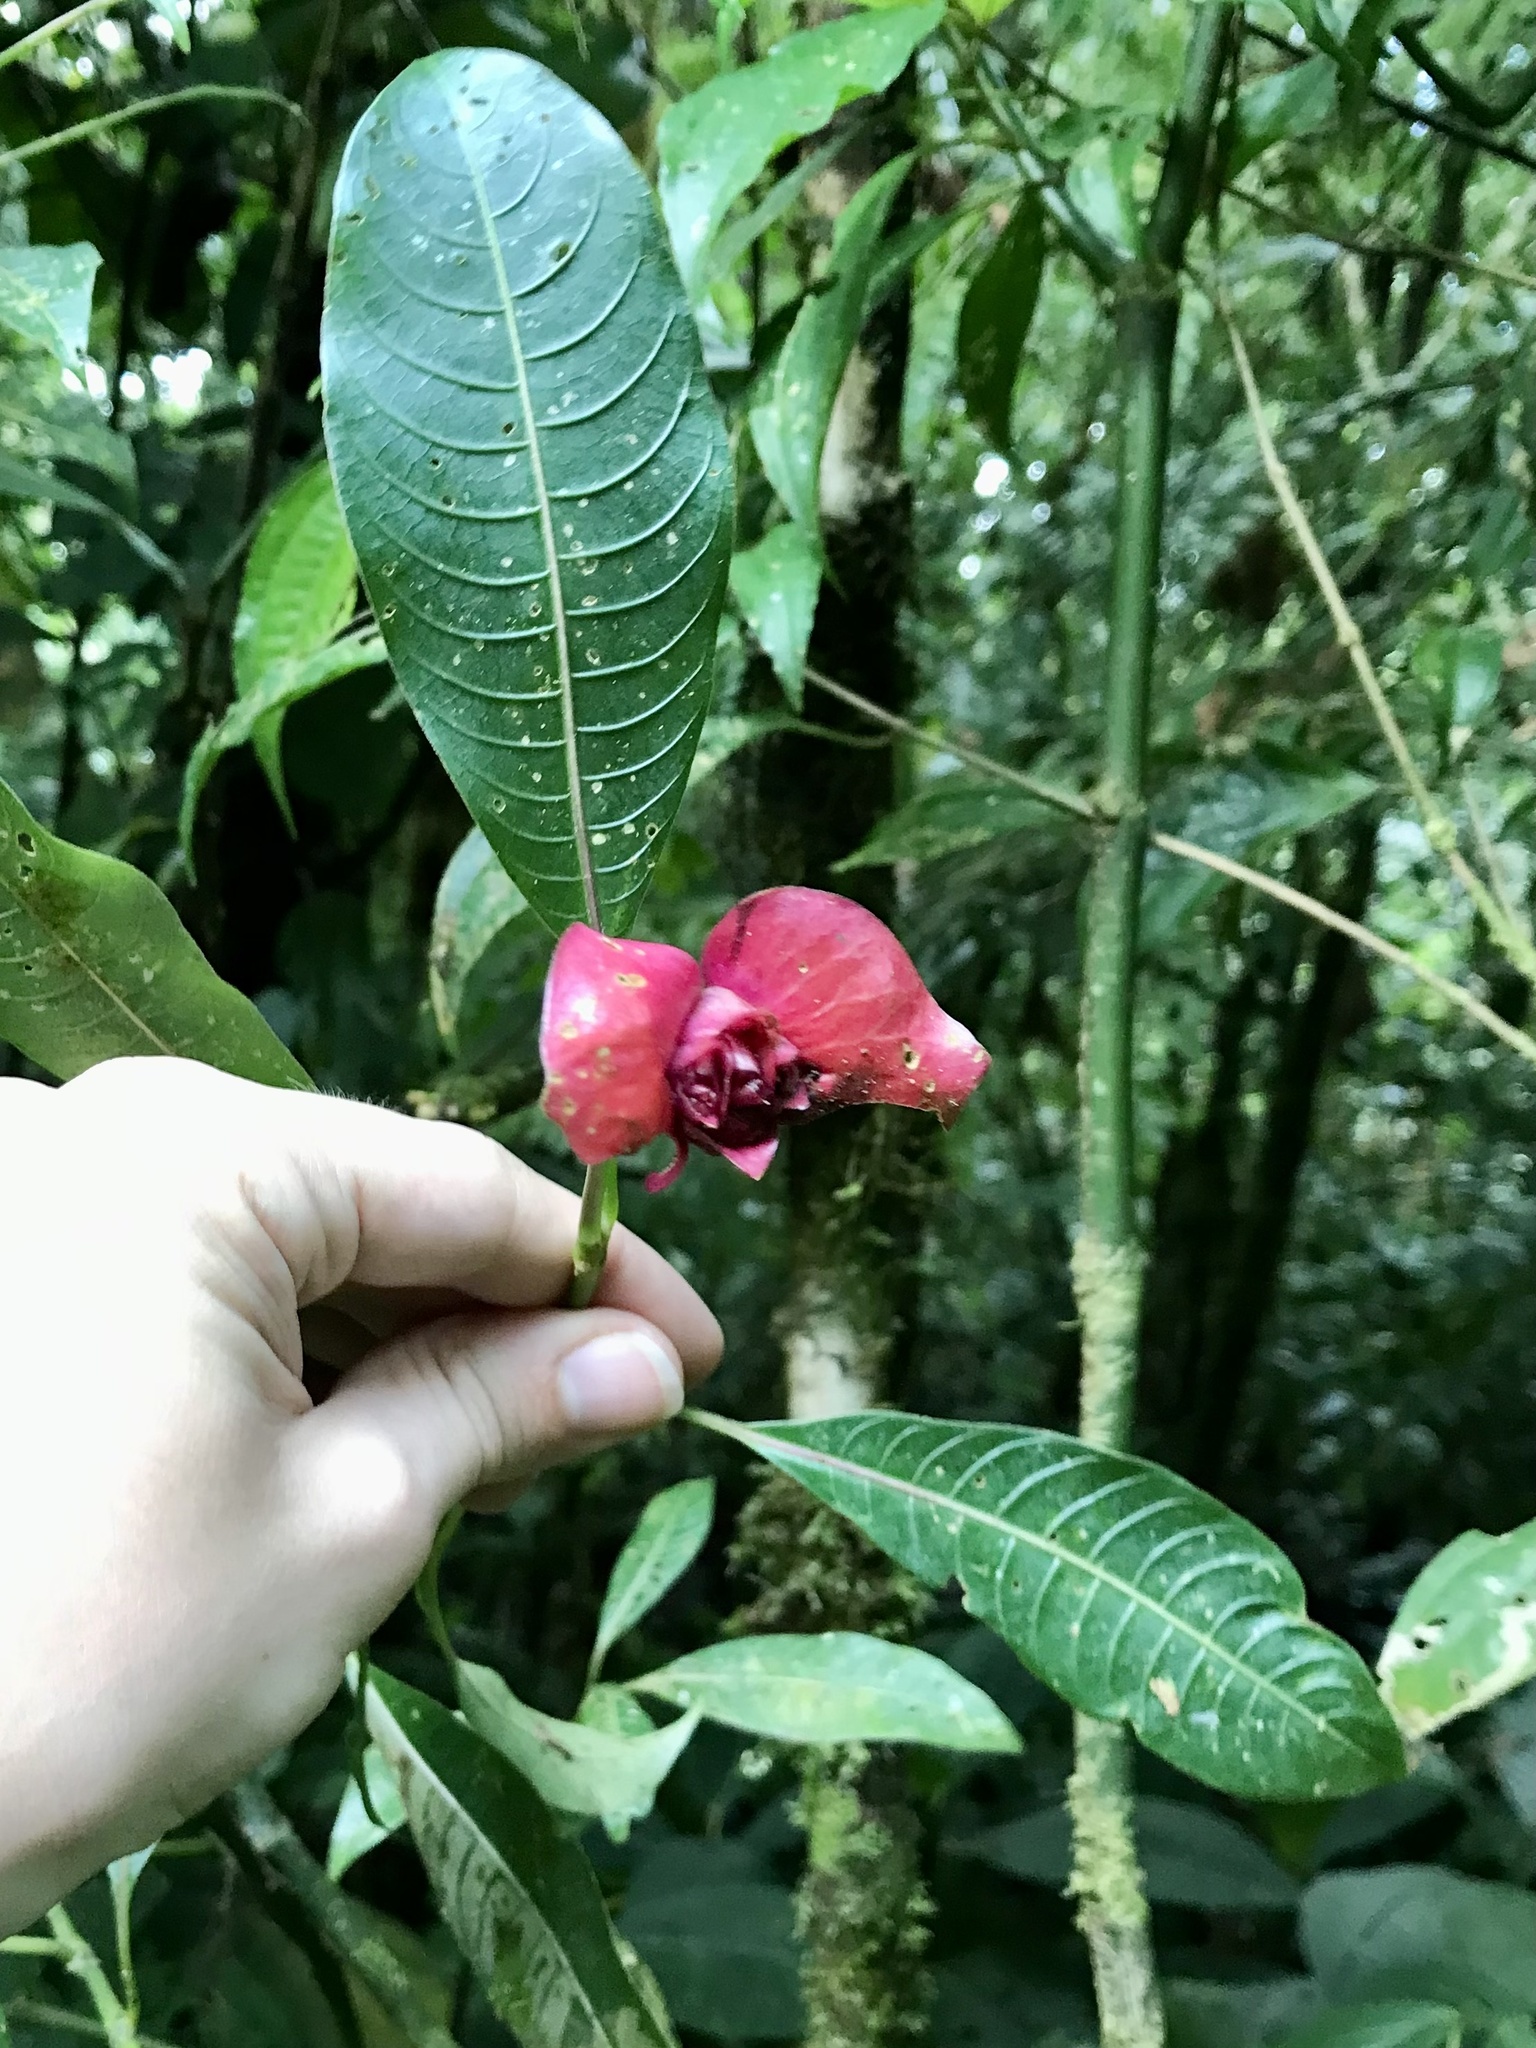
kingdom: Plantae
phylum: Tracheophyta
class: Magnoliopsida
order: Gentianales
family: Rubiaceae
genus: Palicourea
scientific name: Palicourea elata
